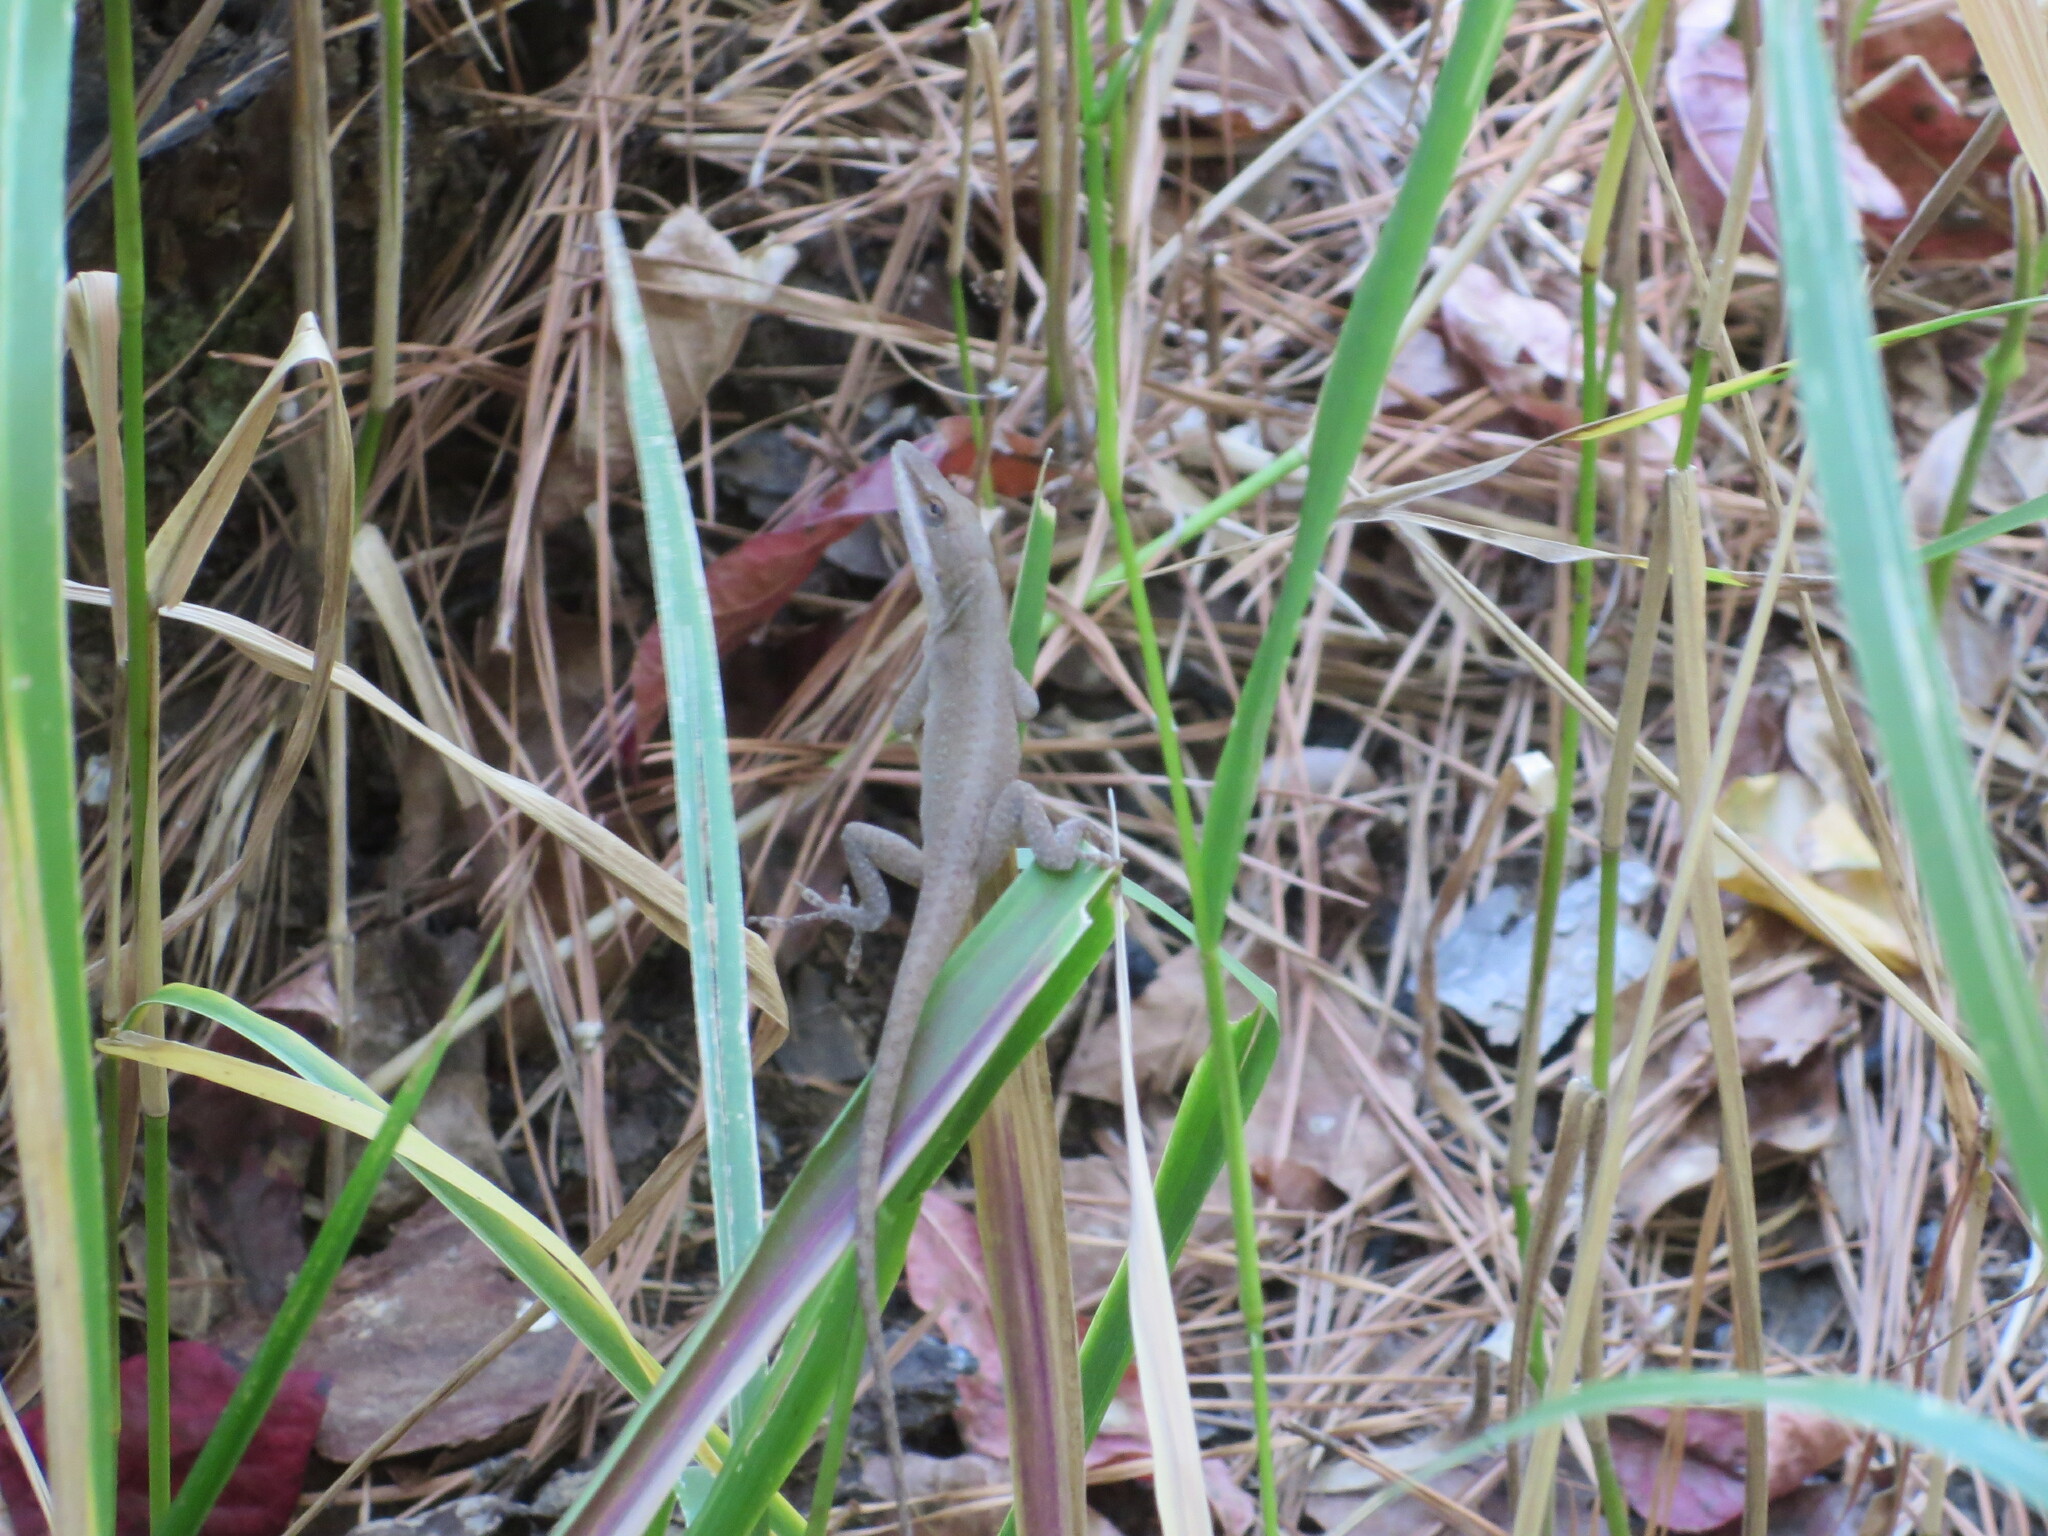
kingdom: Animalia
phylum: Chordata
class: Squamata
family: Dactyloidae
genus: Anolis
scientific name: Anolis carolinensis
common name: Green anole
